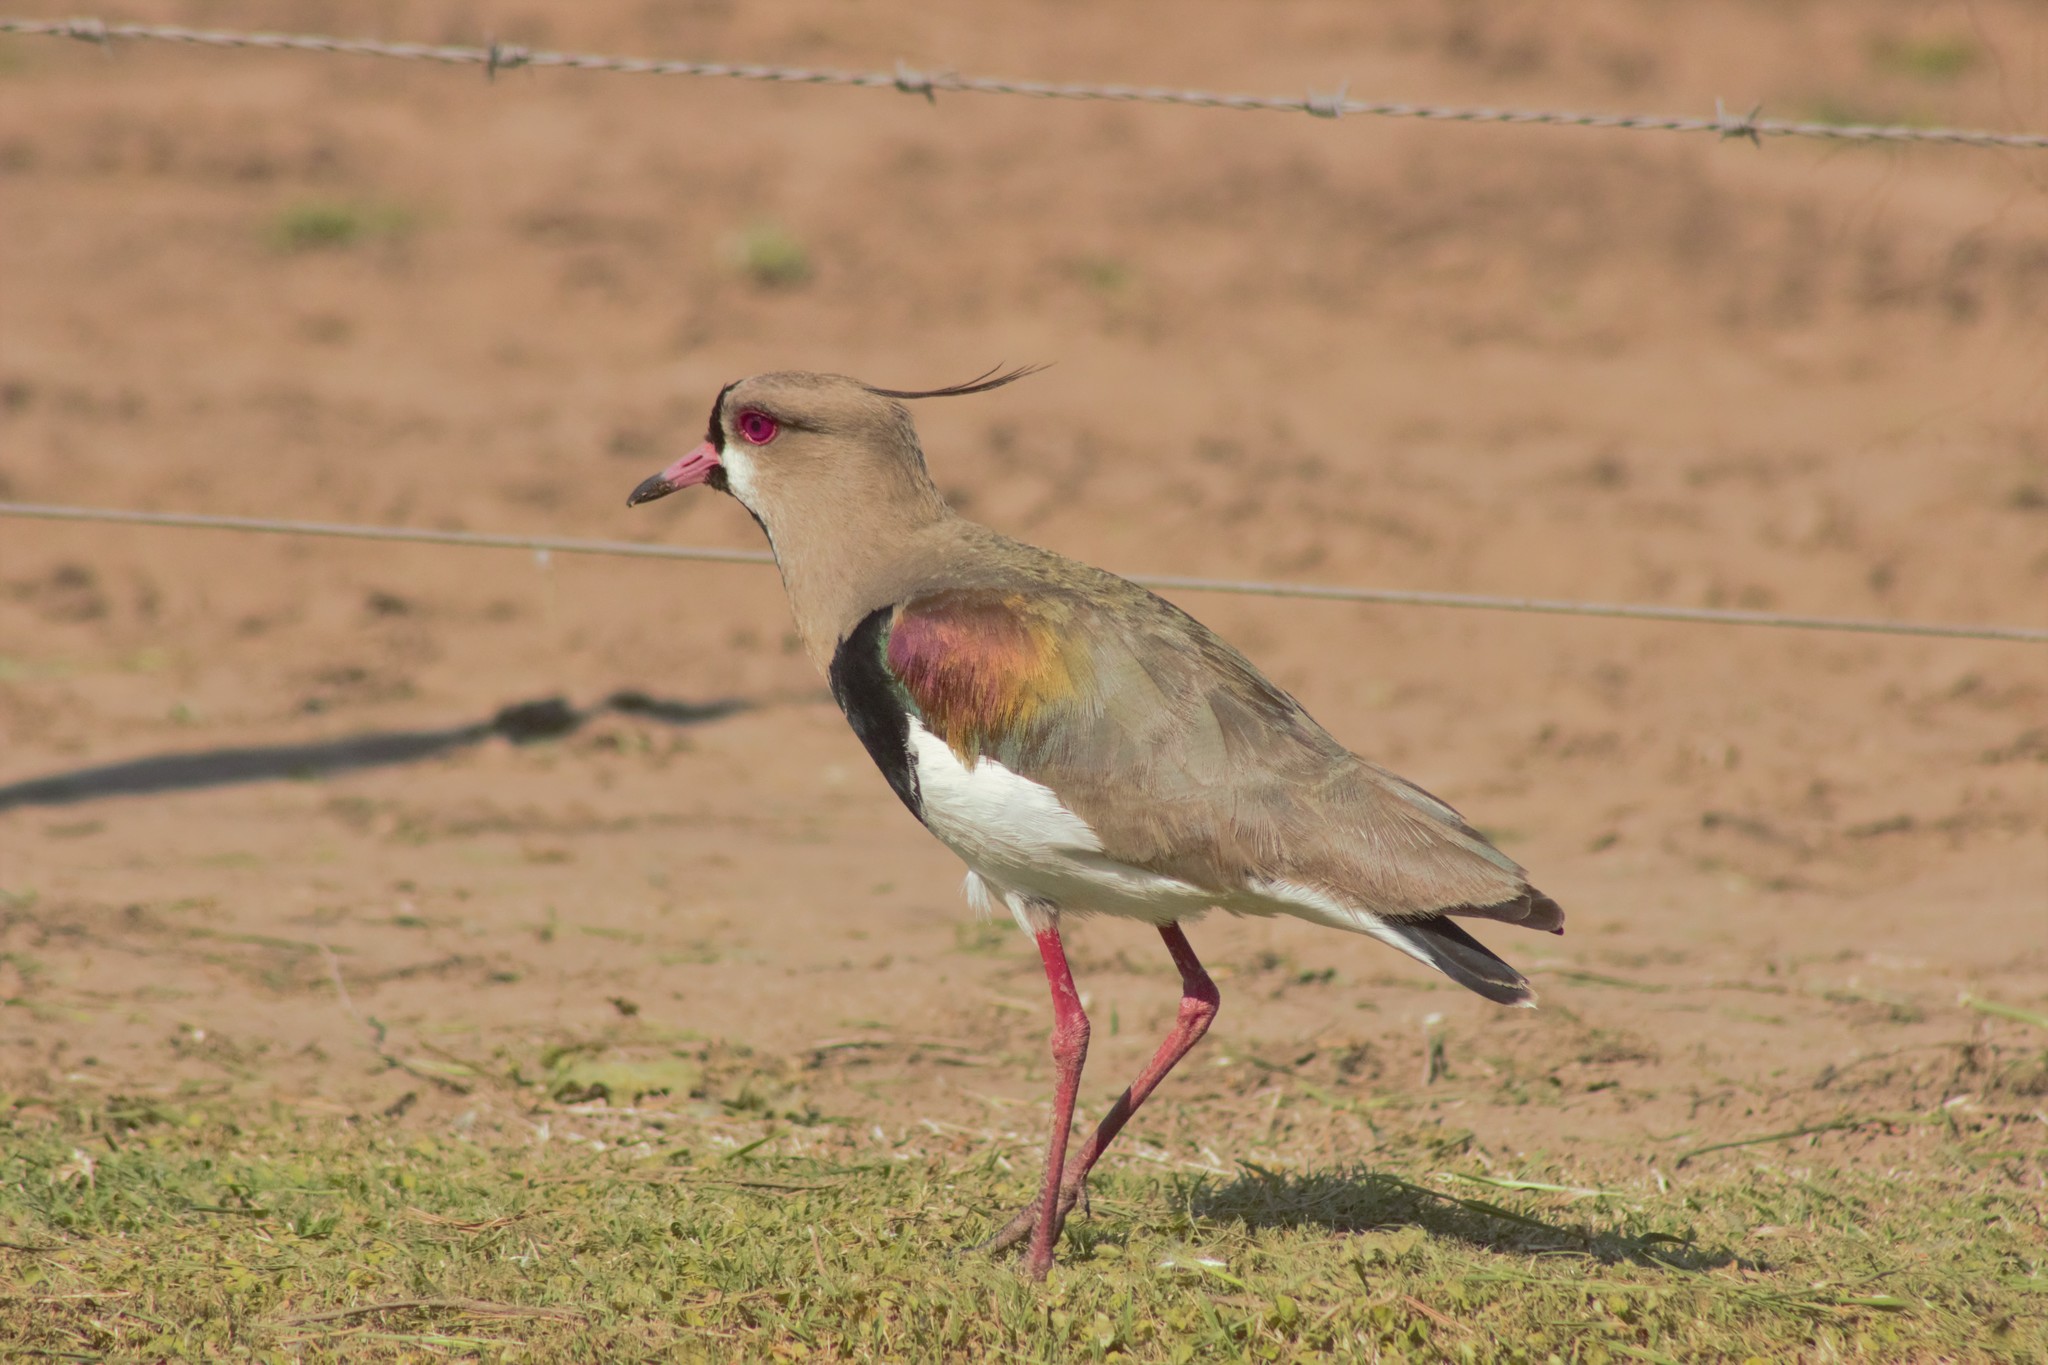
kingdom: Animalia
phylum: Chordata
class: Aves
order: Charadriiformes
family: Charadriidae
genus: Vanellus
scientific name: Vanellus chilensis
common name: Southern lapwing
